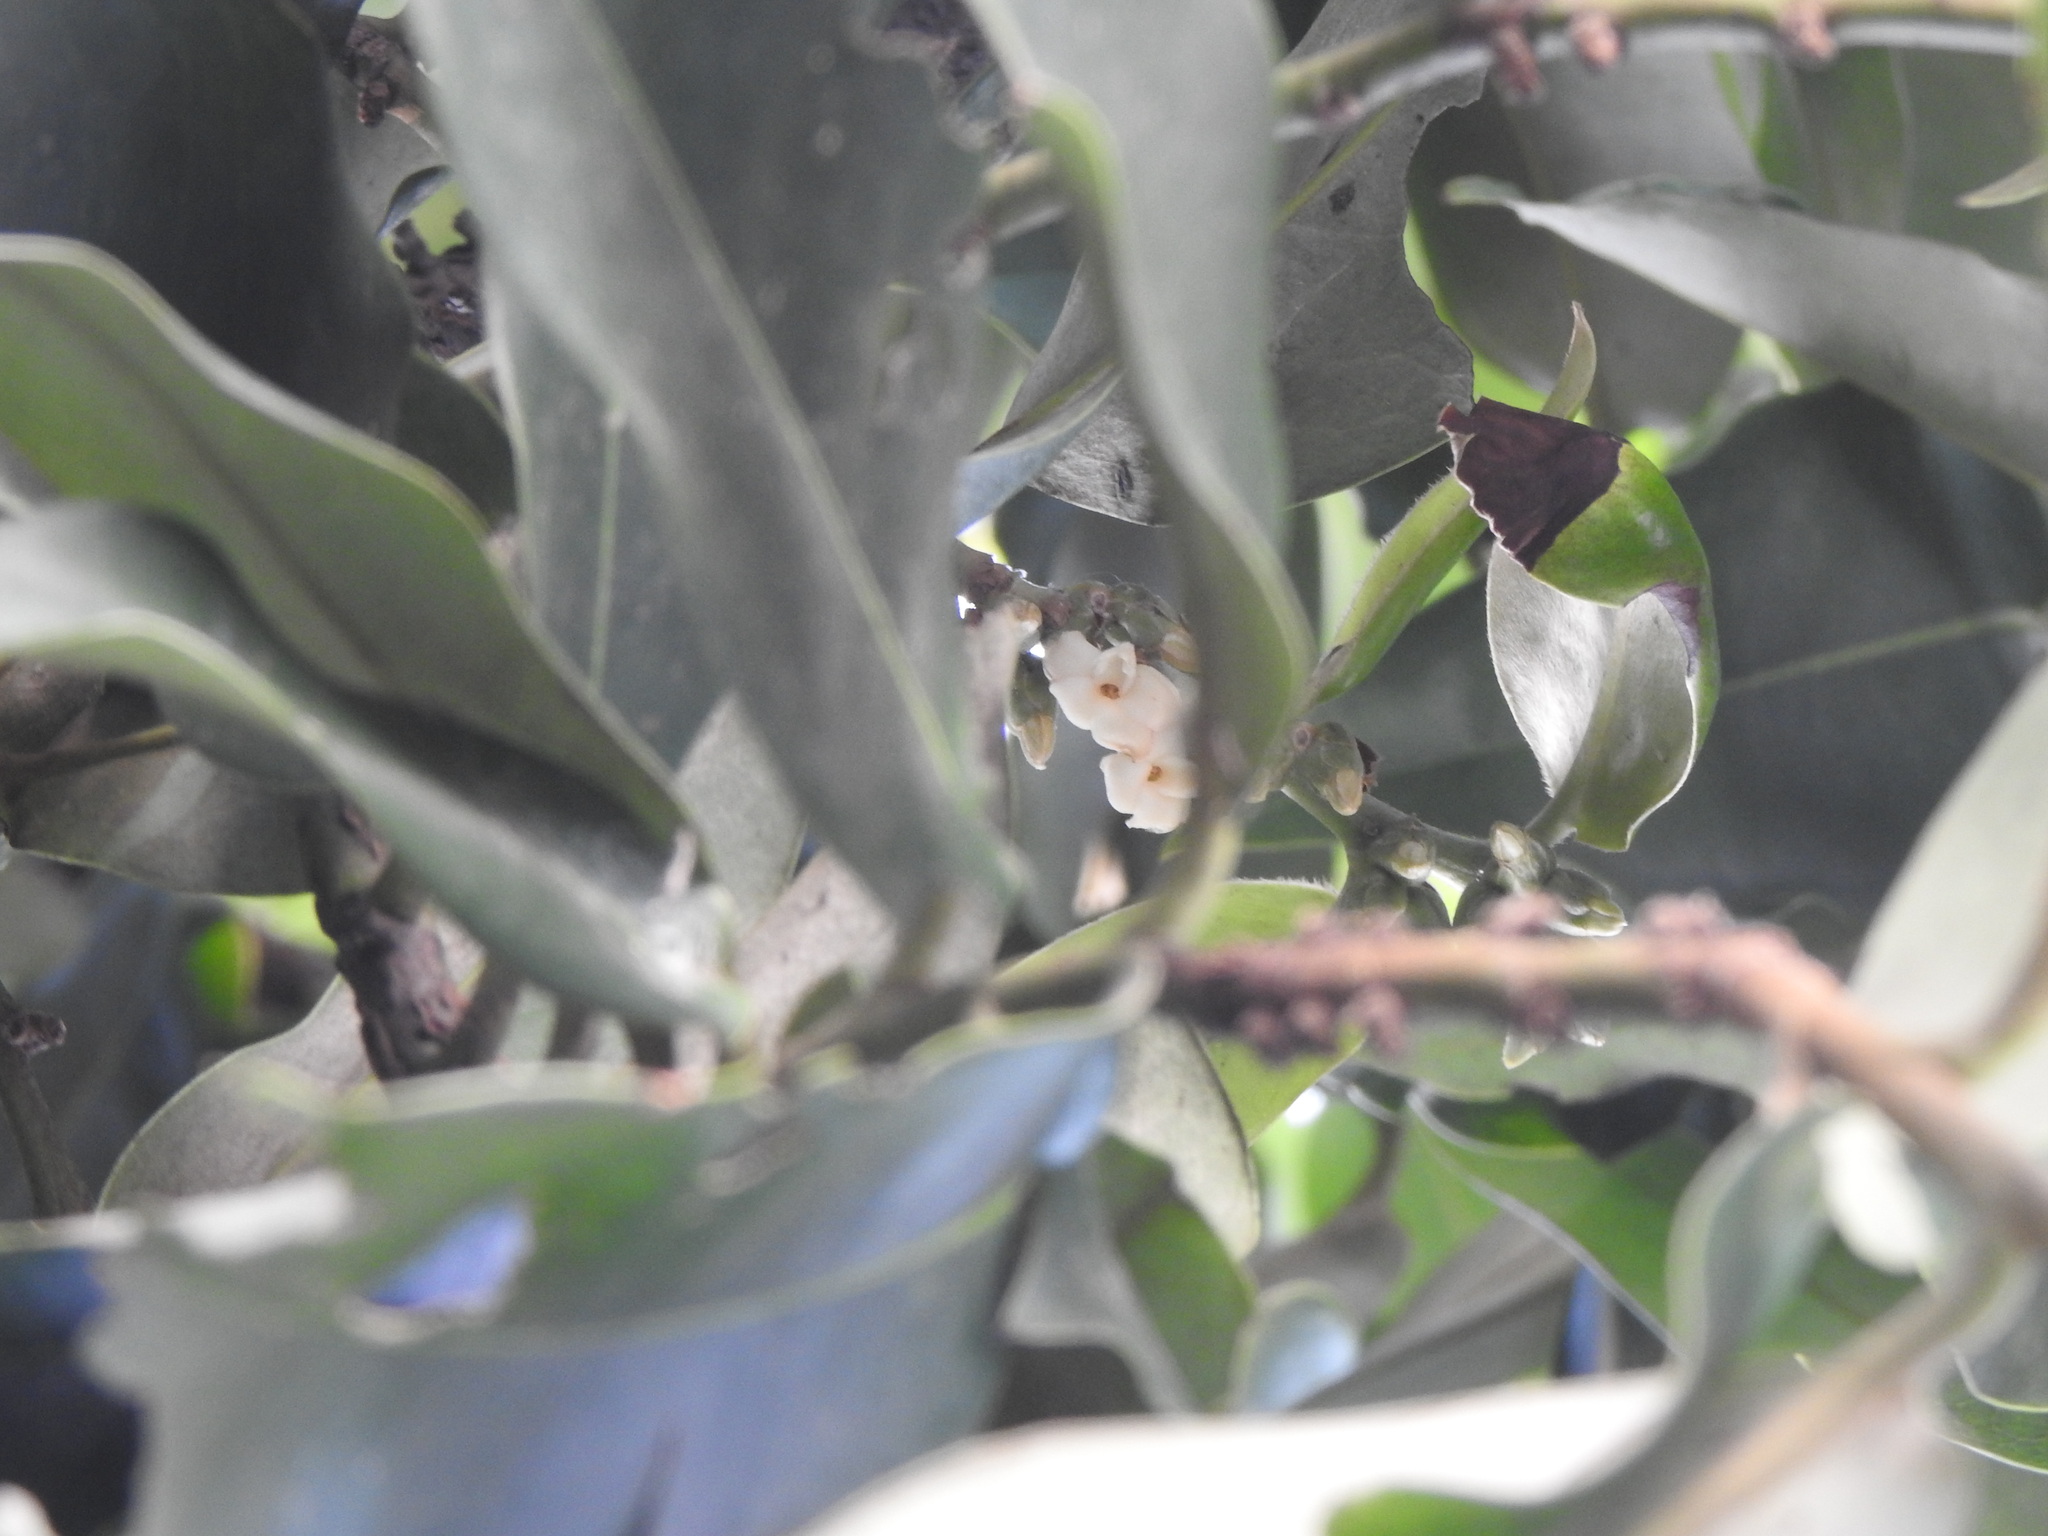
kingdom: Plantae
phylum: Tracheophyta
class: Magnoliopsida
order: Ericales
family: Ebenaceae
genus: Diospyros
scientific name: Diospyros blancoi
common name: Mabola-tree
